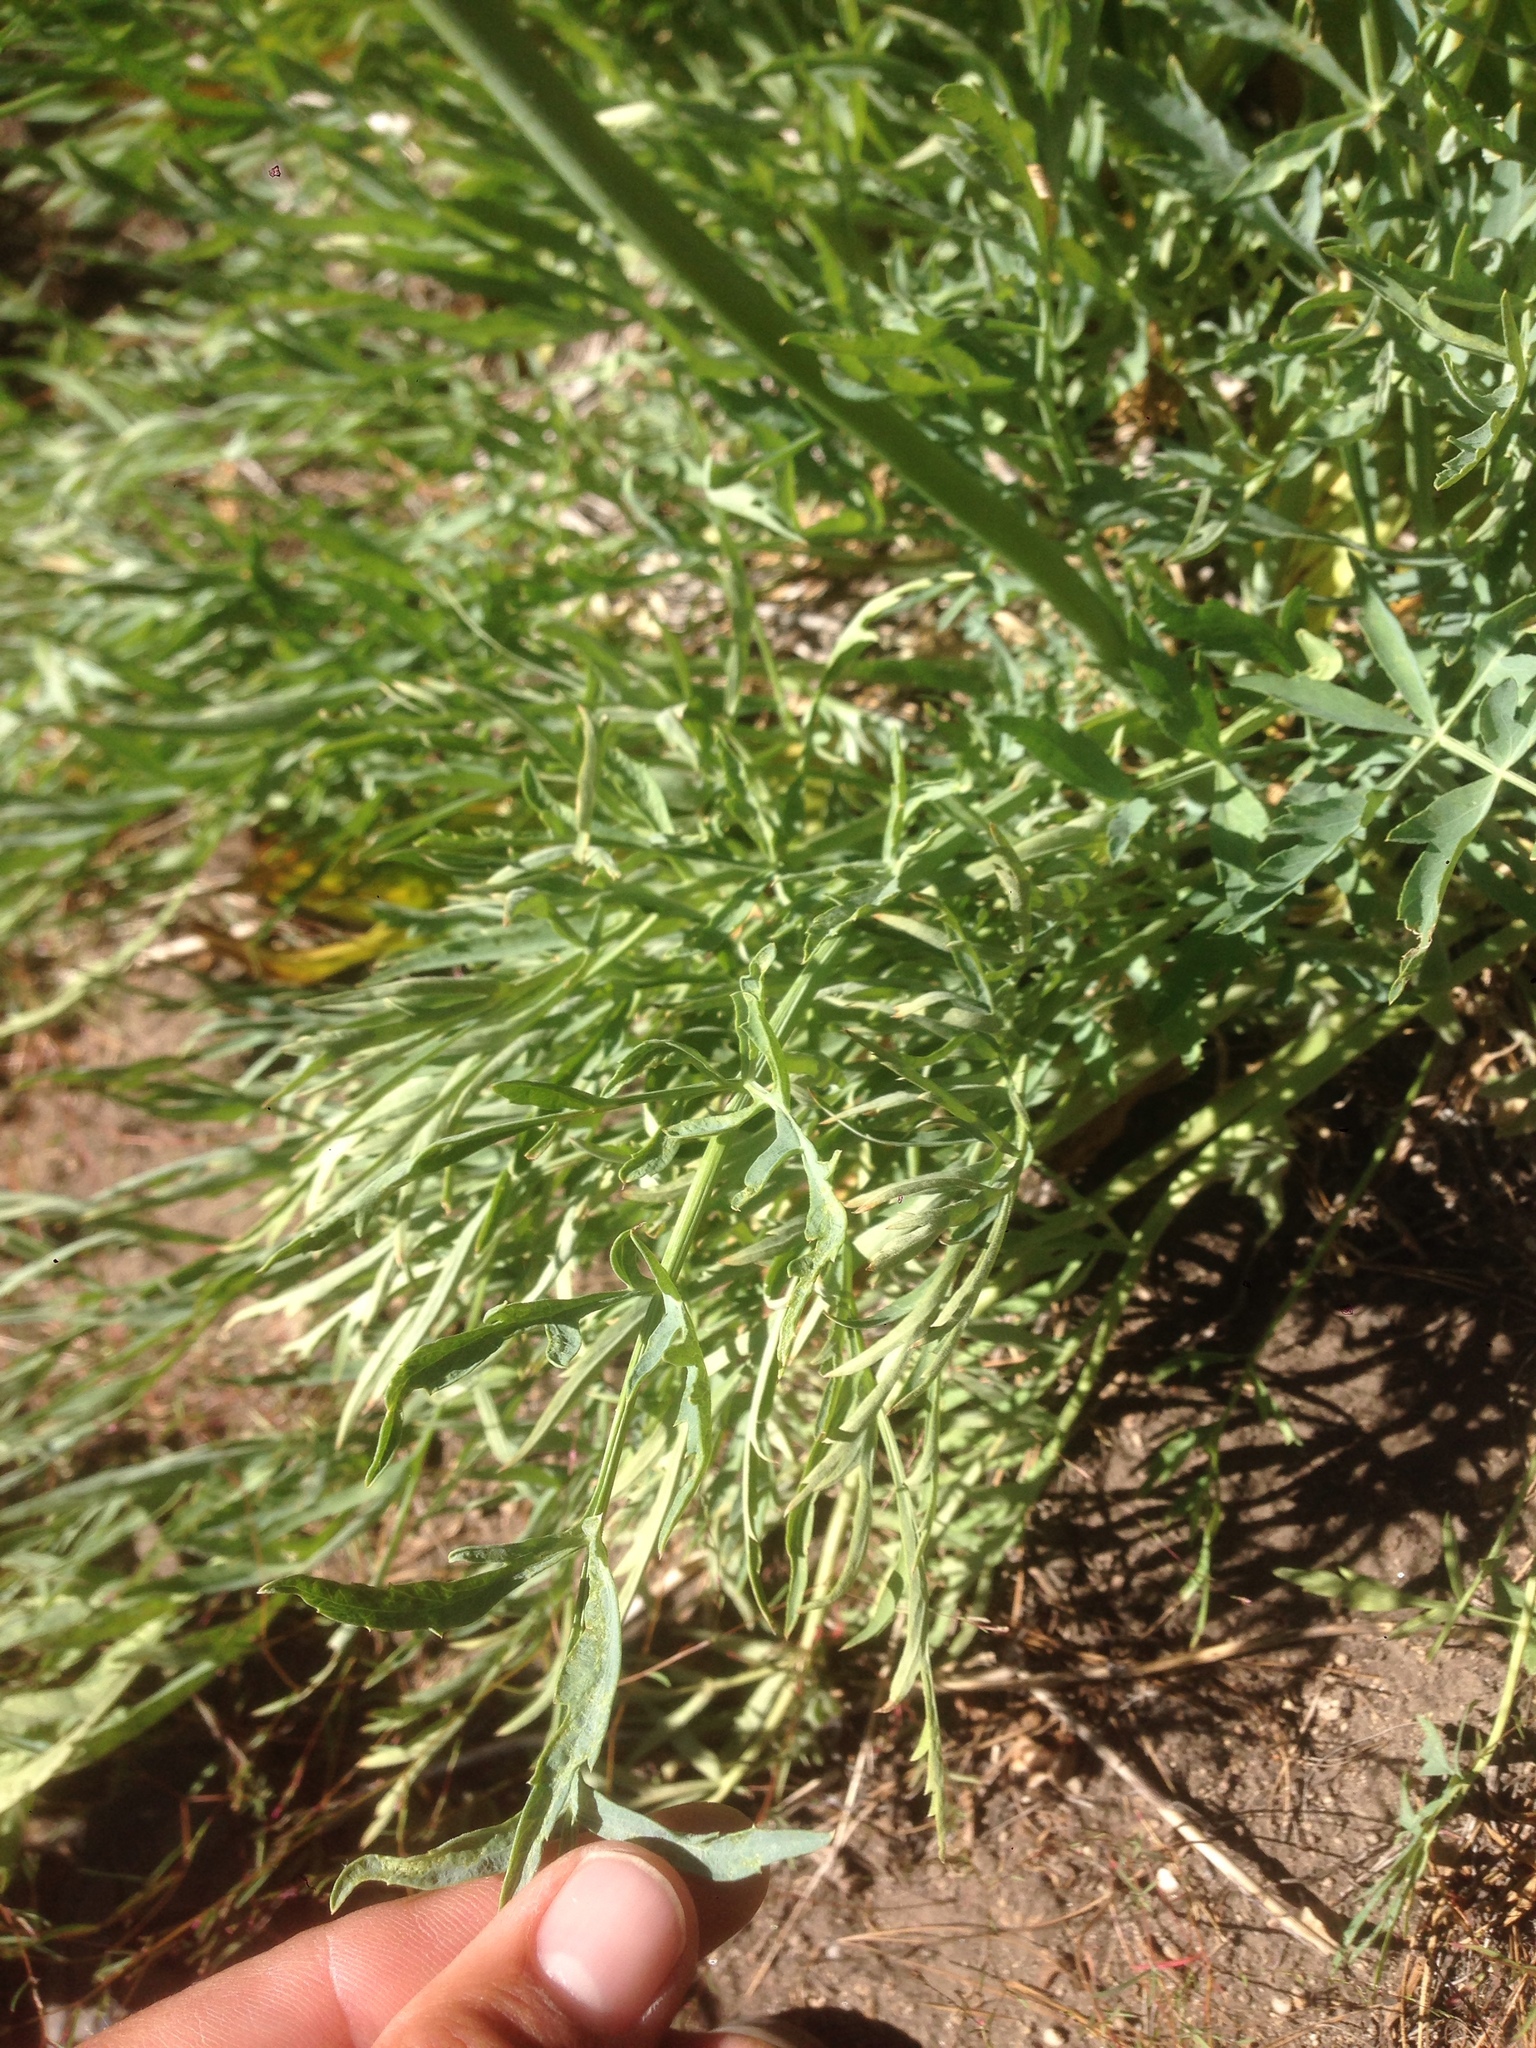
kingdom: Plantae
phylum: Tracheophyta
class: Magnoliopsida
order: Apiales
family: Apiaceae
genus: Angelica
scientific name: Angelica capitellata
